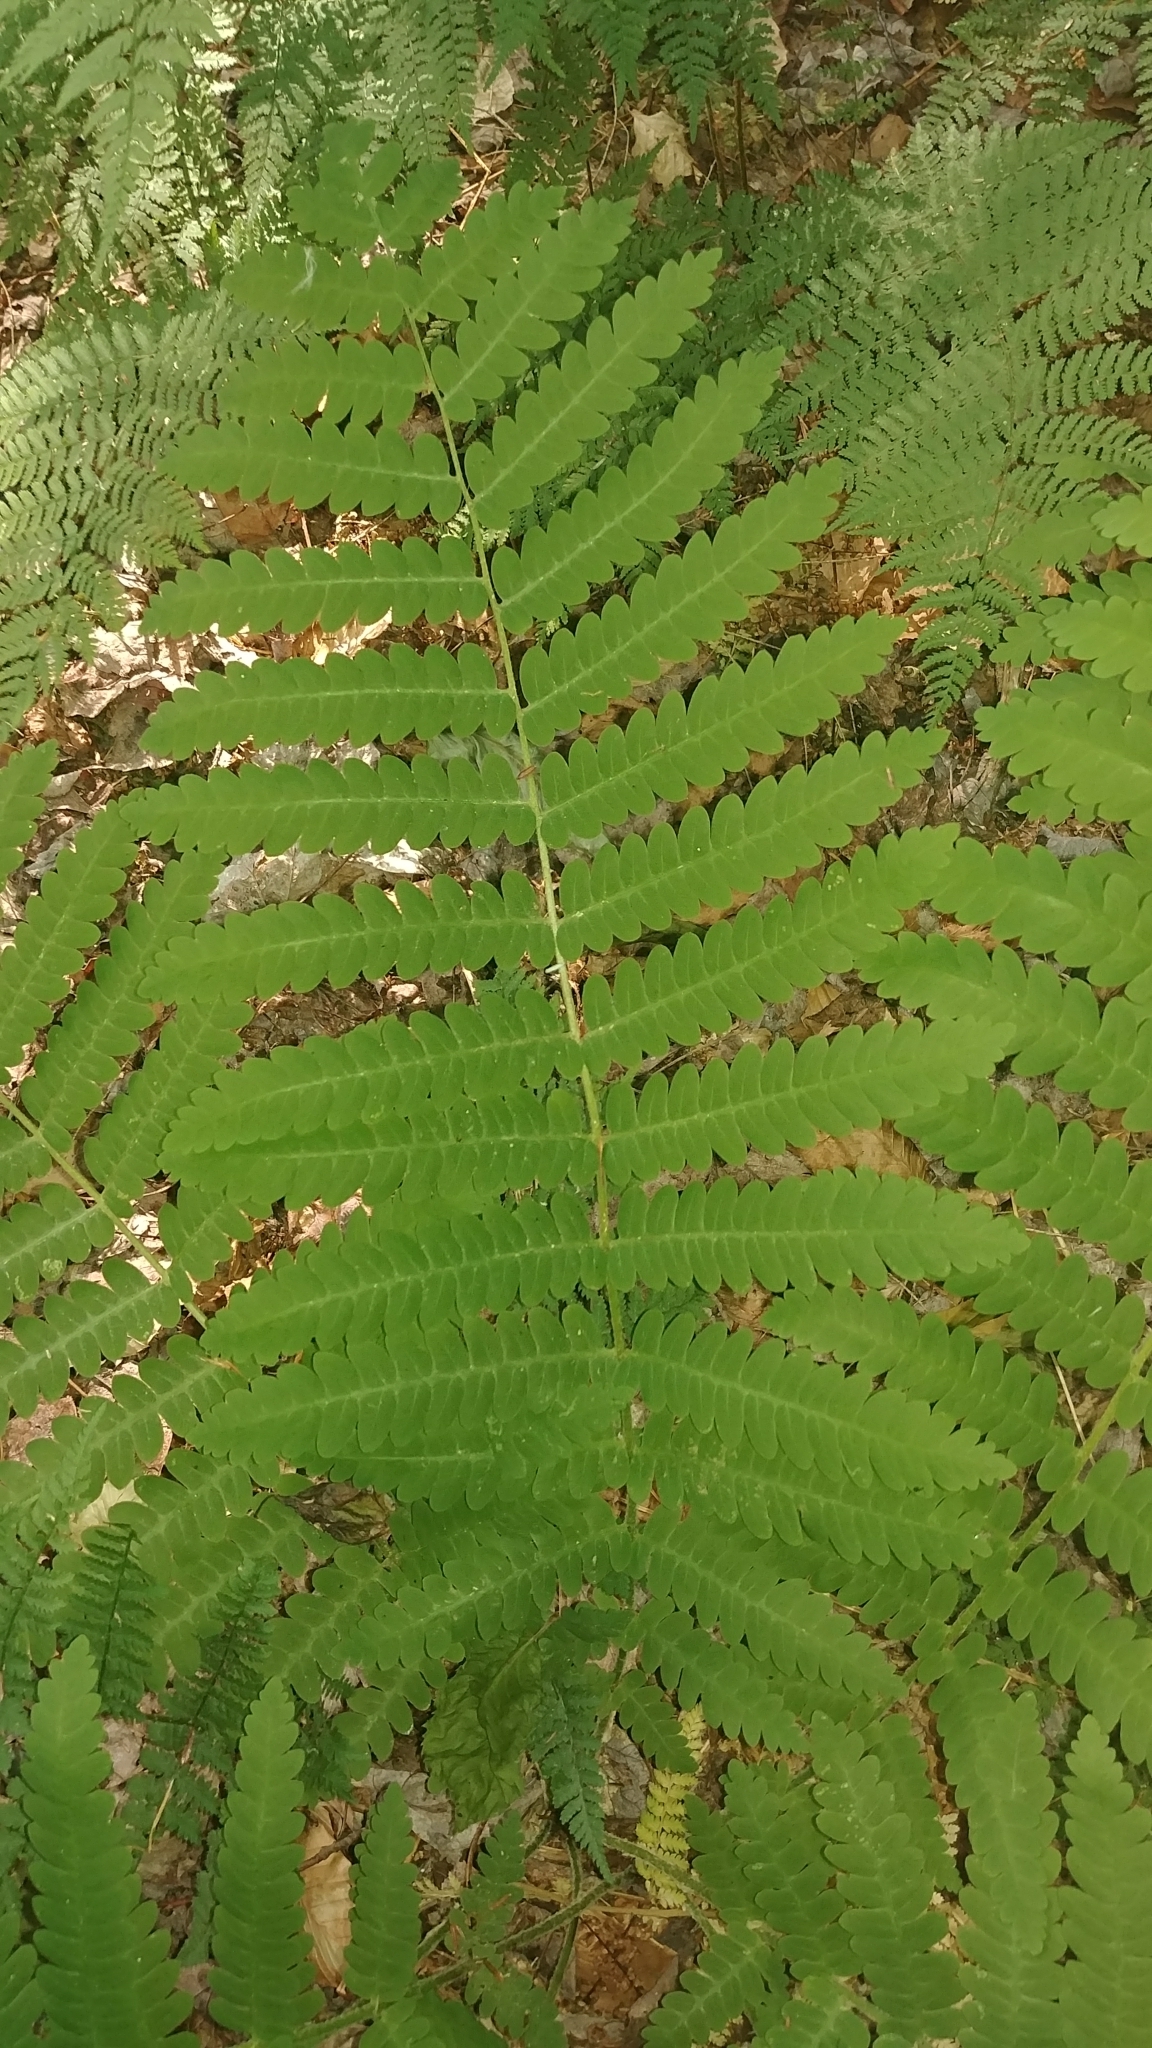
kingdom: Plantae
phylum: Tracheophyta
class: Polypodiopsida
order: Osmundales
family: Osmundaceae
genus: Claytosmunda
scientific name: Claytosmunda claytoniana
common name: Clayton's fern
